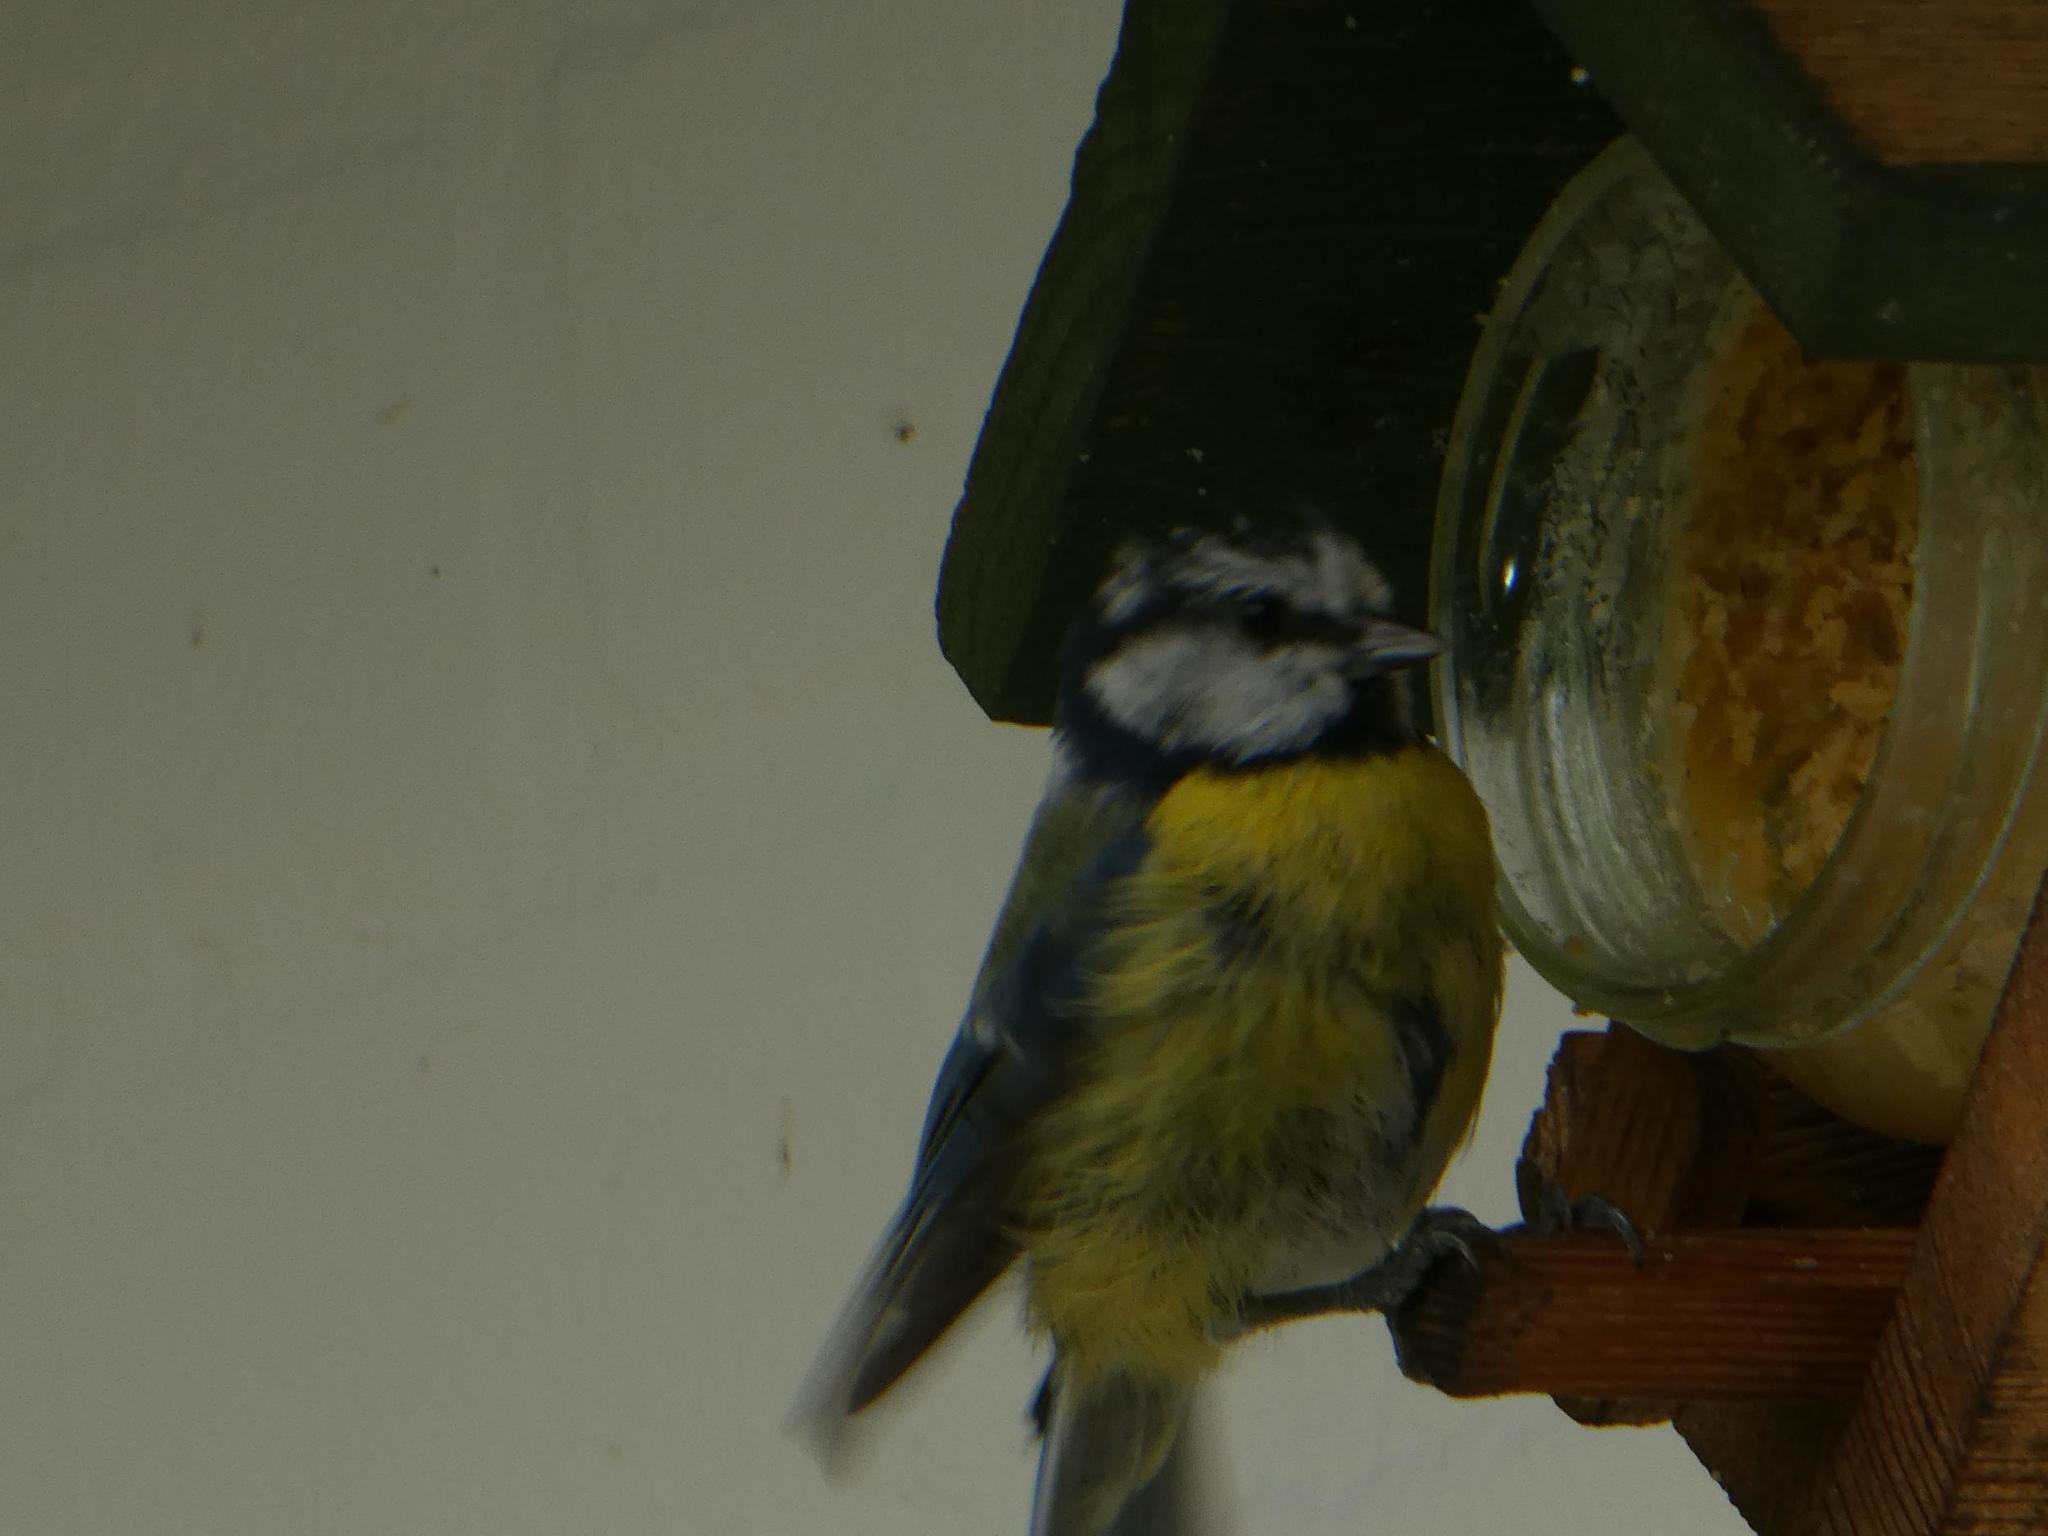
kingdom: Animalia
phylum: Chordata
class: Aves
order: Passeriformes
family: Paridae
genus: Cyanistes
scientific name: Cyanistes caeruleus
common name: Eurasian blue tit
